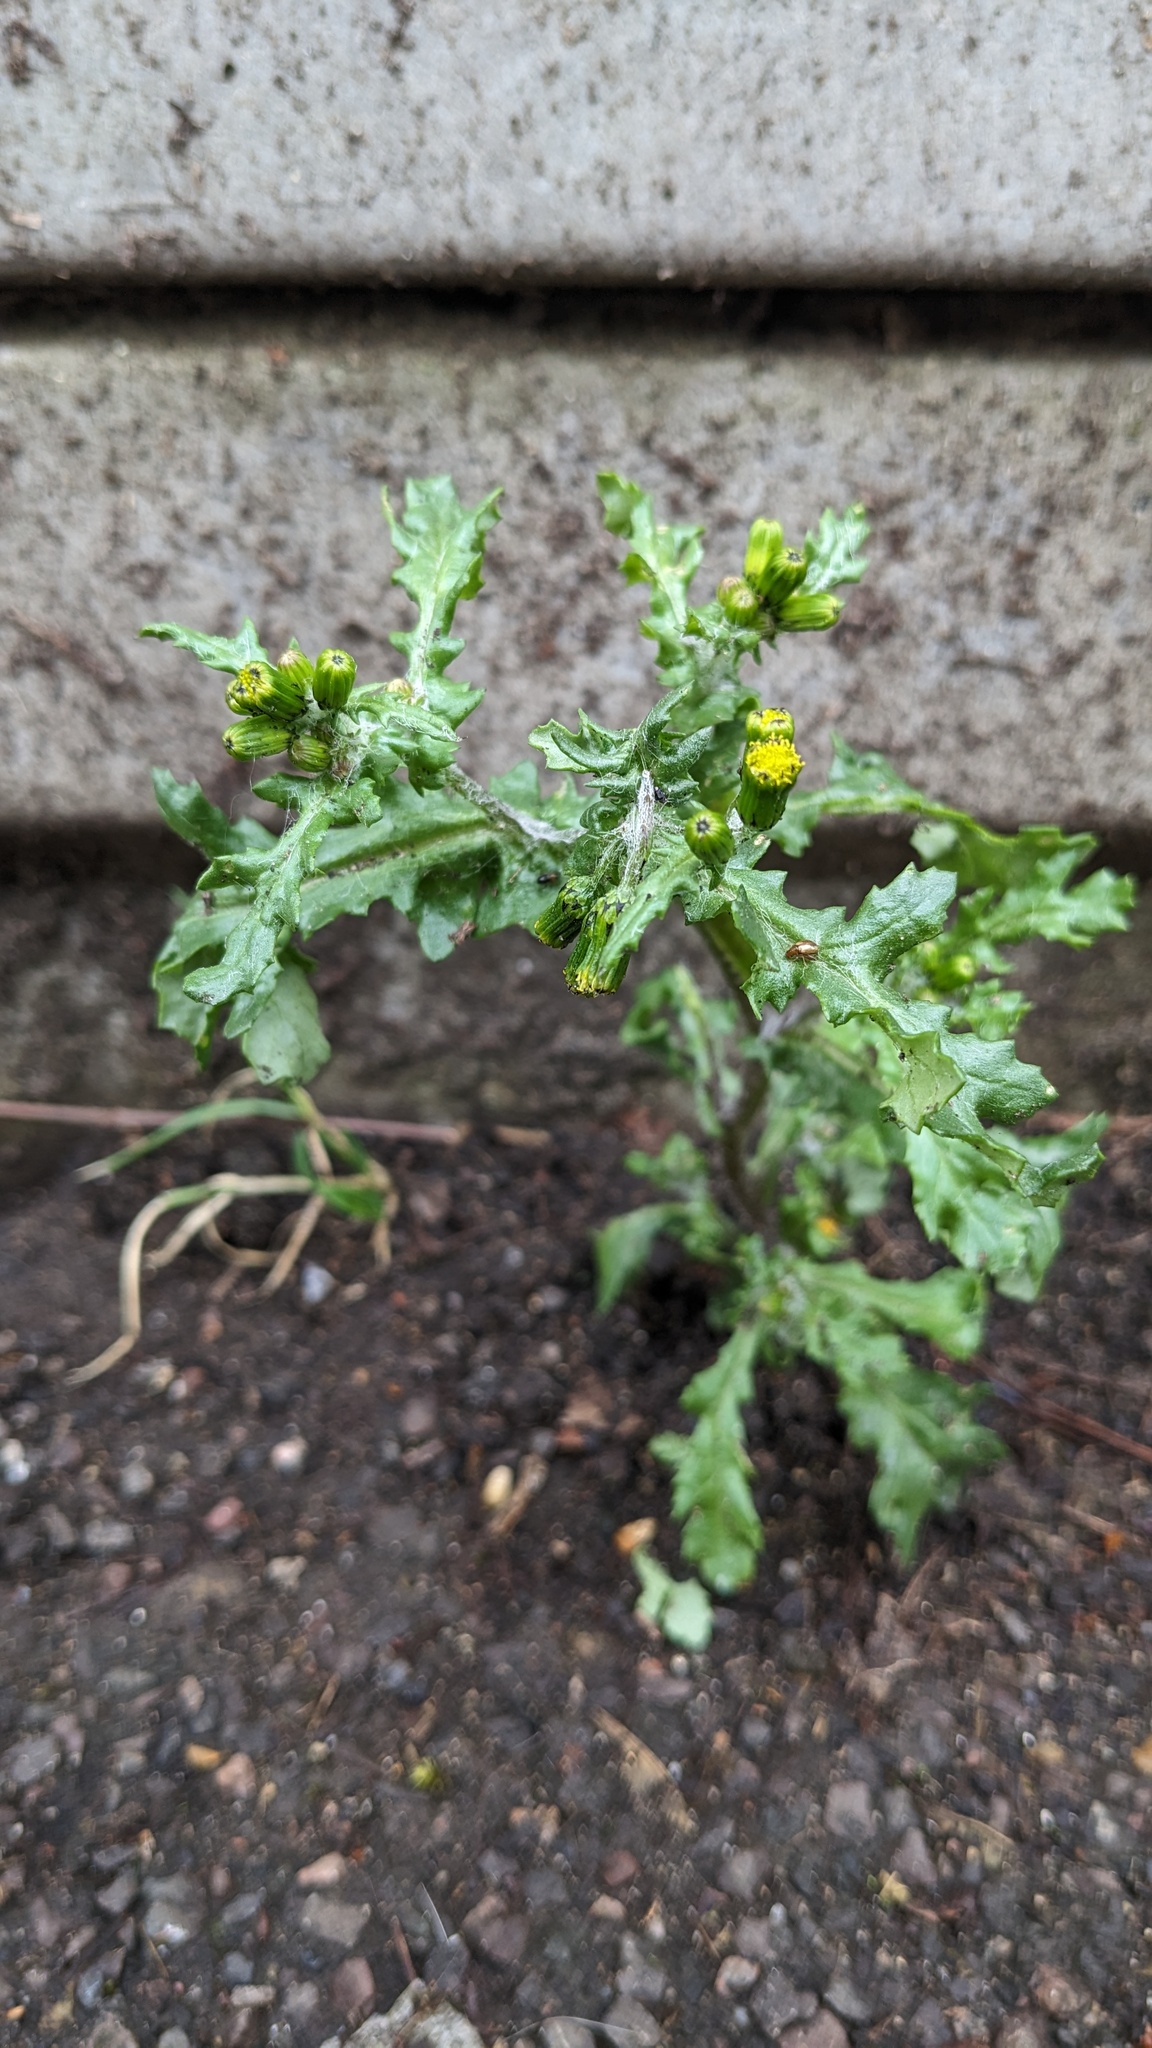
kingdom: Plantae
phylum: Tracheophyta
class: Magnoliopsida
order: Asterales
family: Asteraceae
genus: Senecio
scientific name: Senecio vulgaris
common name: Old-man-in-the-spring
